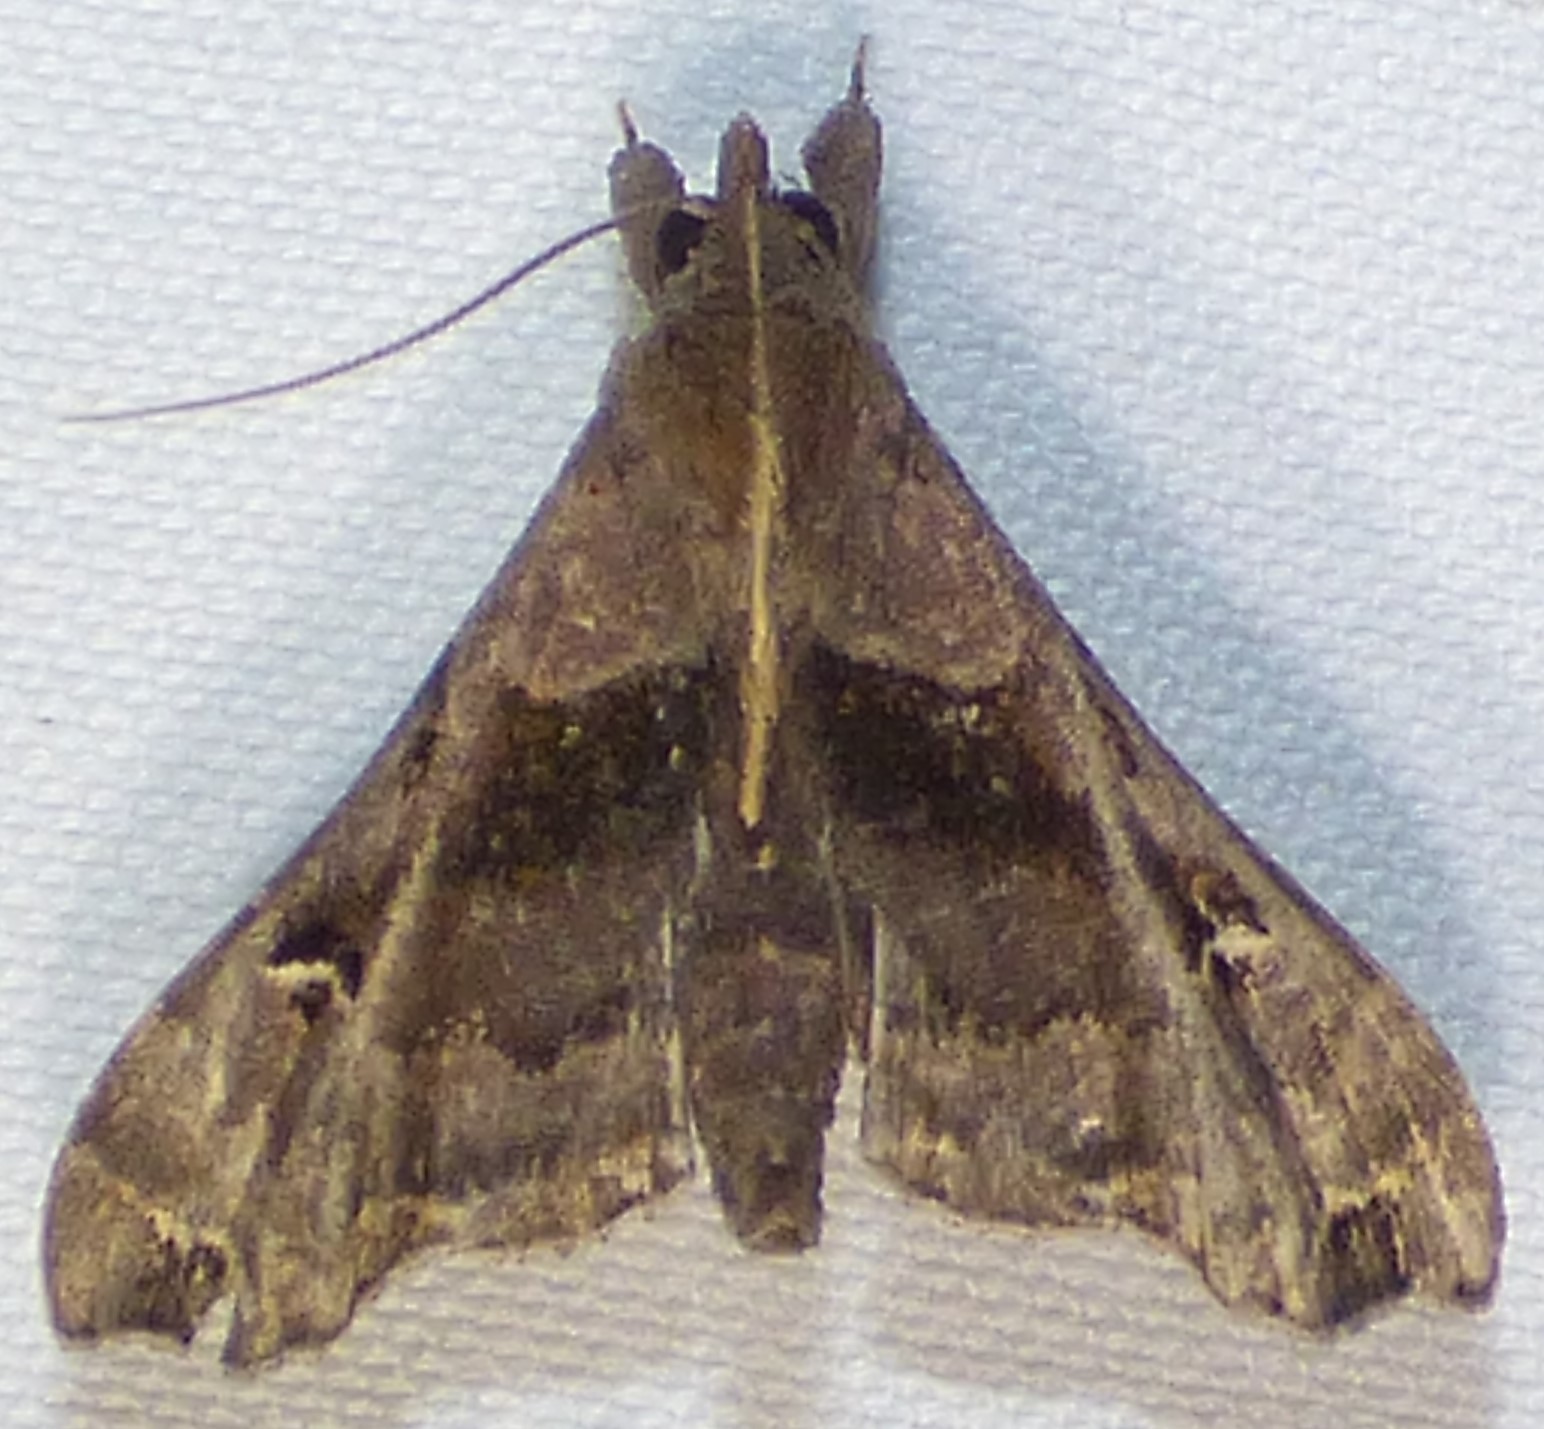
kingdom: Animalia
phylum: Arthropoda
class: Insecta
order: Lepidoptera
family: Erebidae
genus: Palthis
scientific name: Palthis asopialis
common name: Faint-spotted palthis moth
